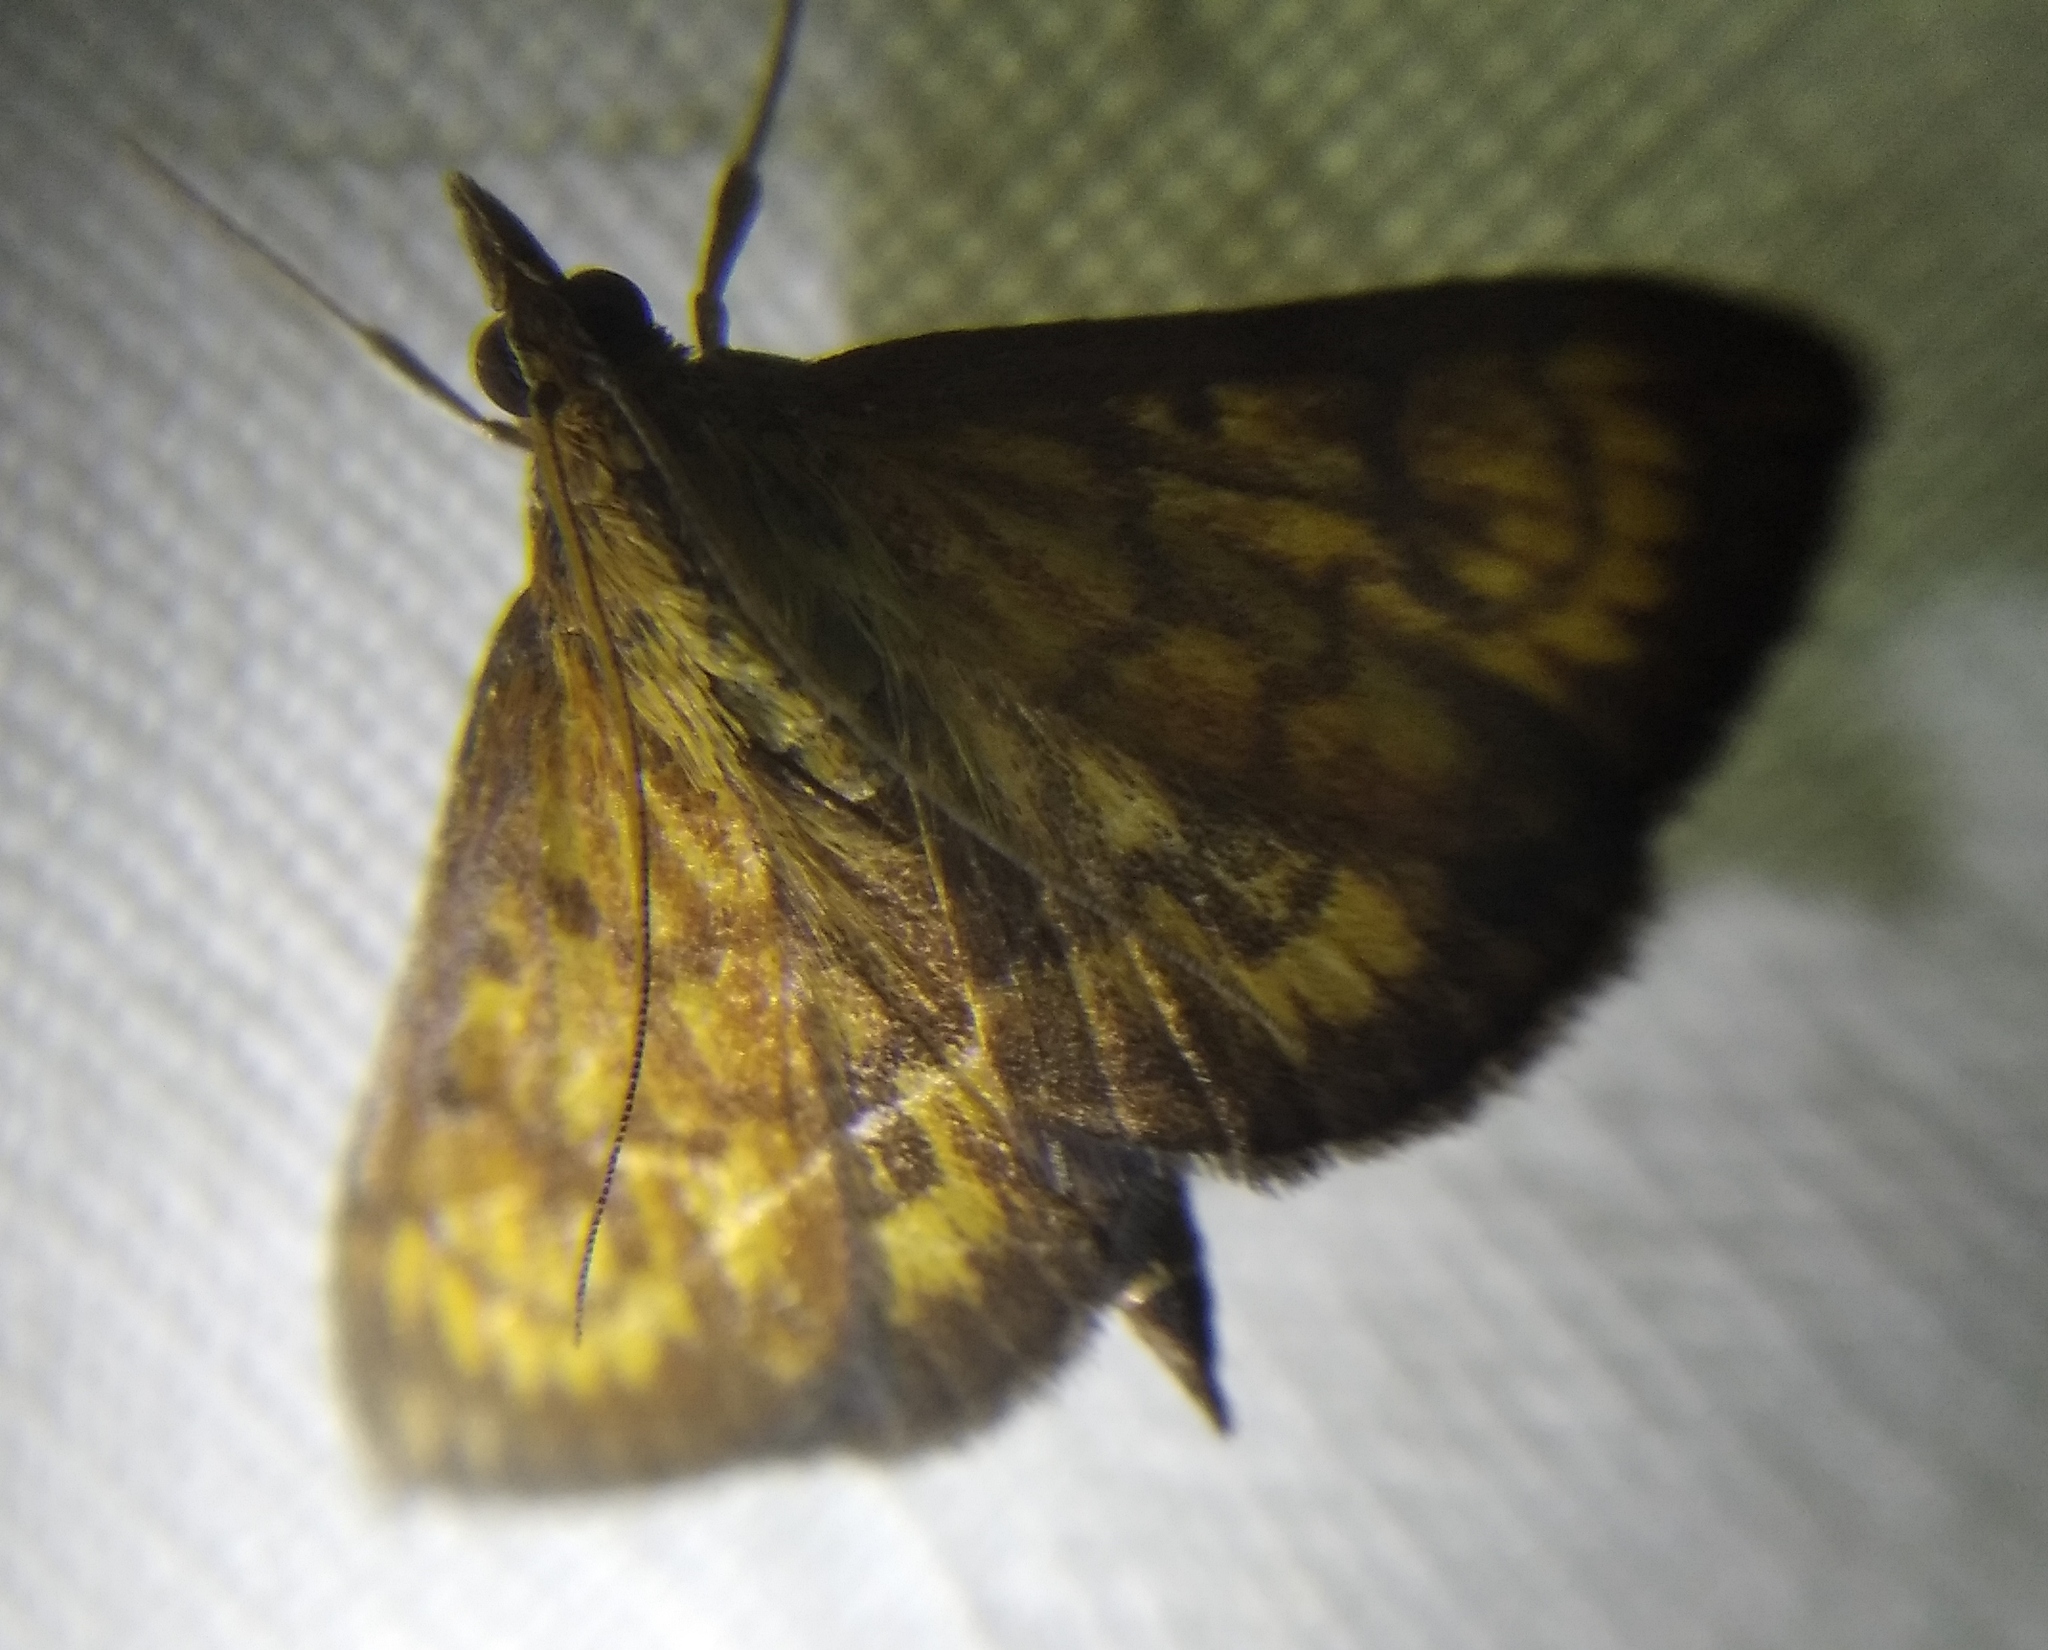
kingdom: Animalia
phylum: Arthropoda
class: Insecta
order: Lepidoptera
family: Crambidae
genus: Ecpyrrhorrhoe
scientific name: Ecpyrrhorrhoe rubiginalis
